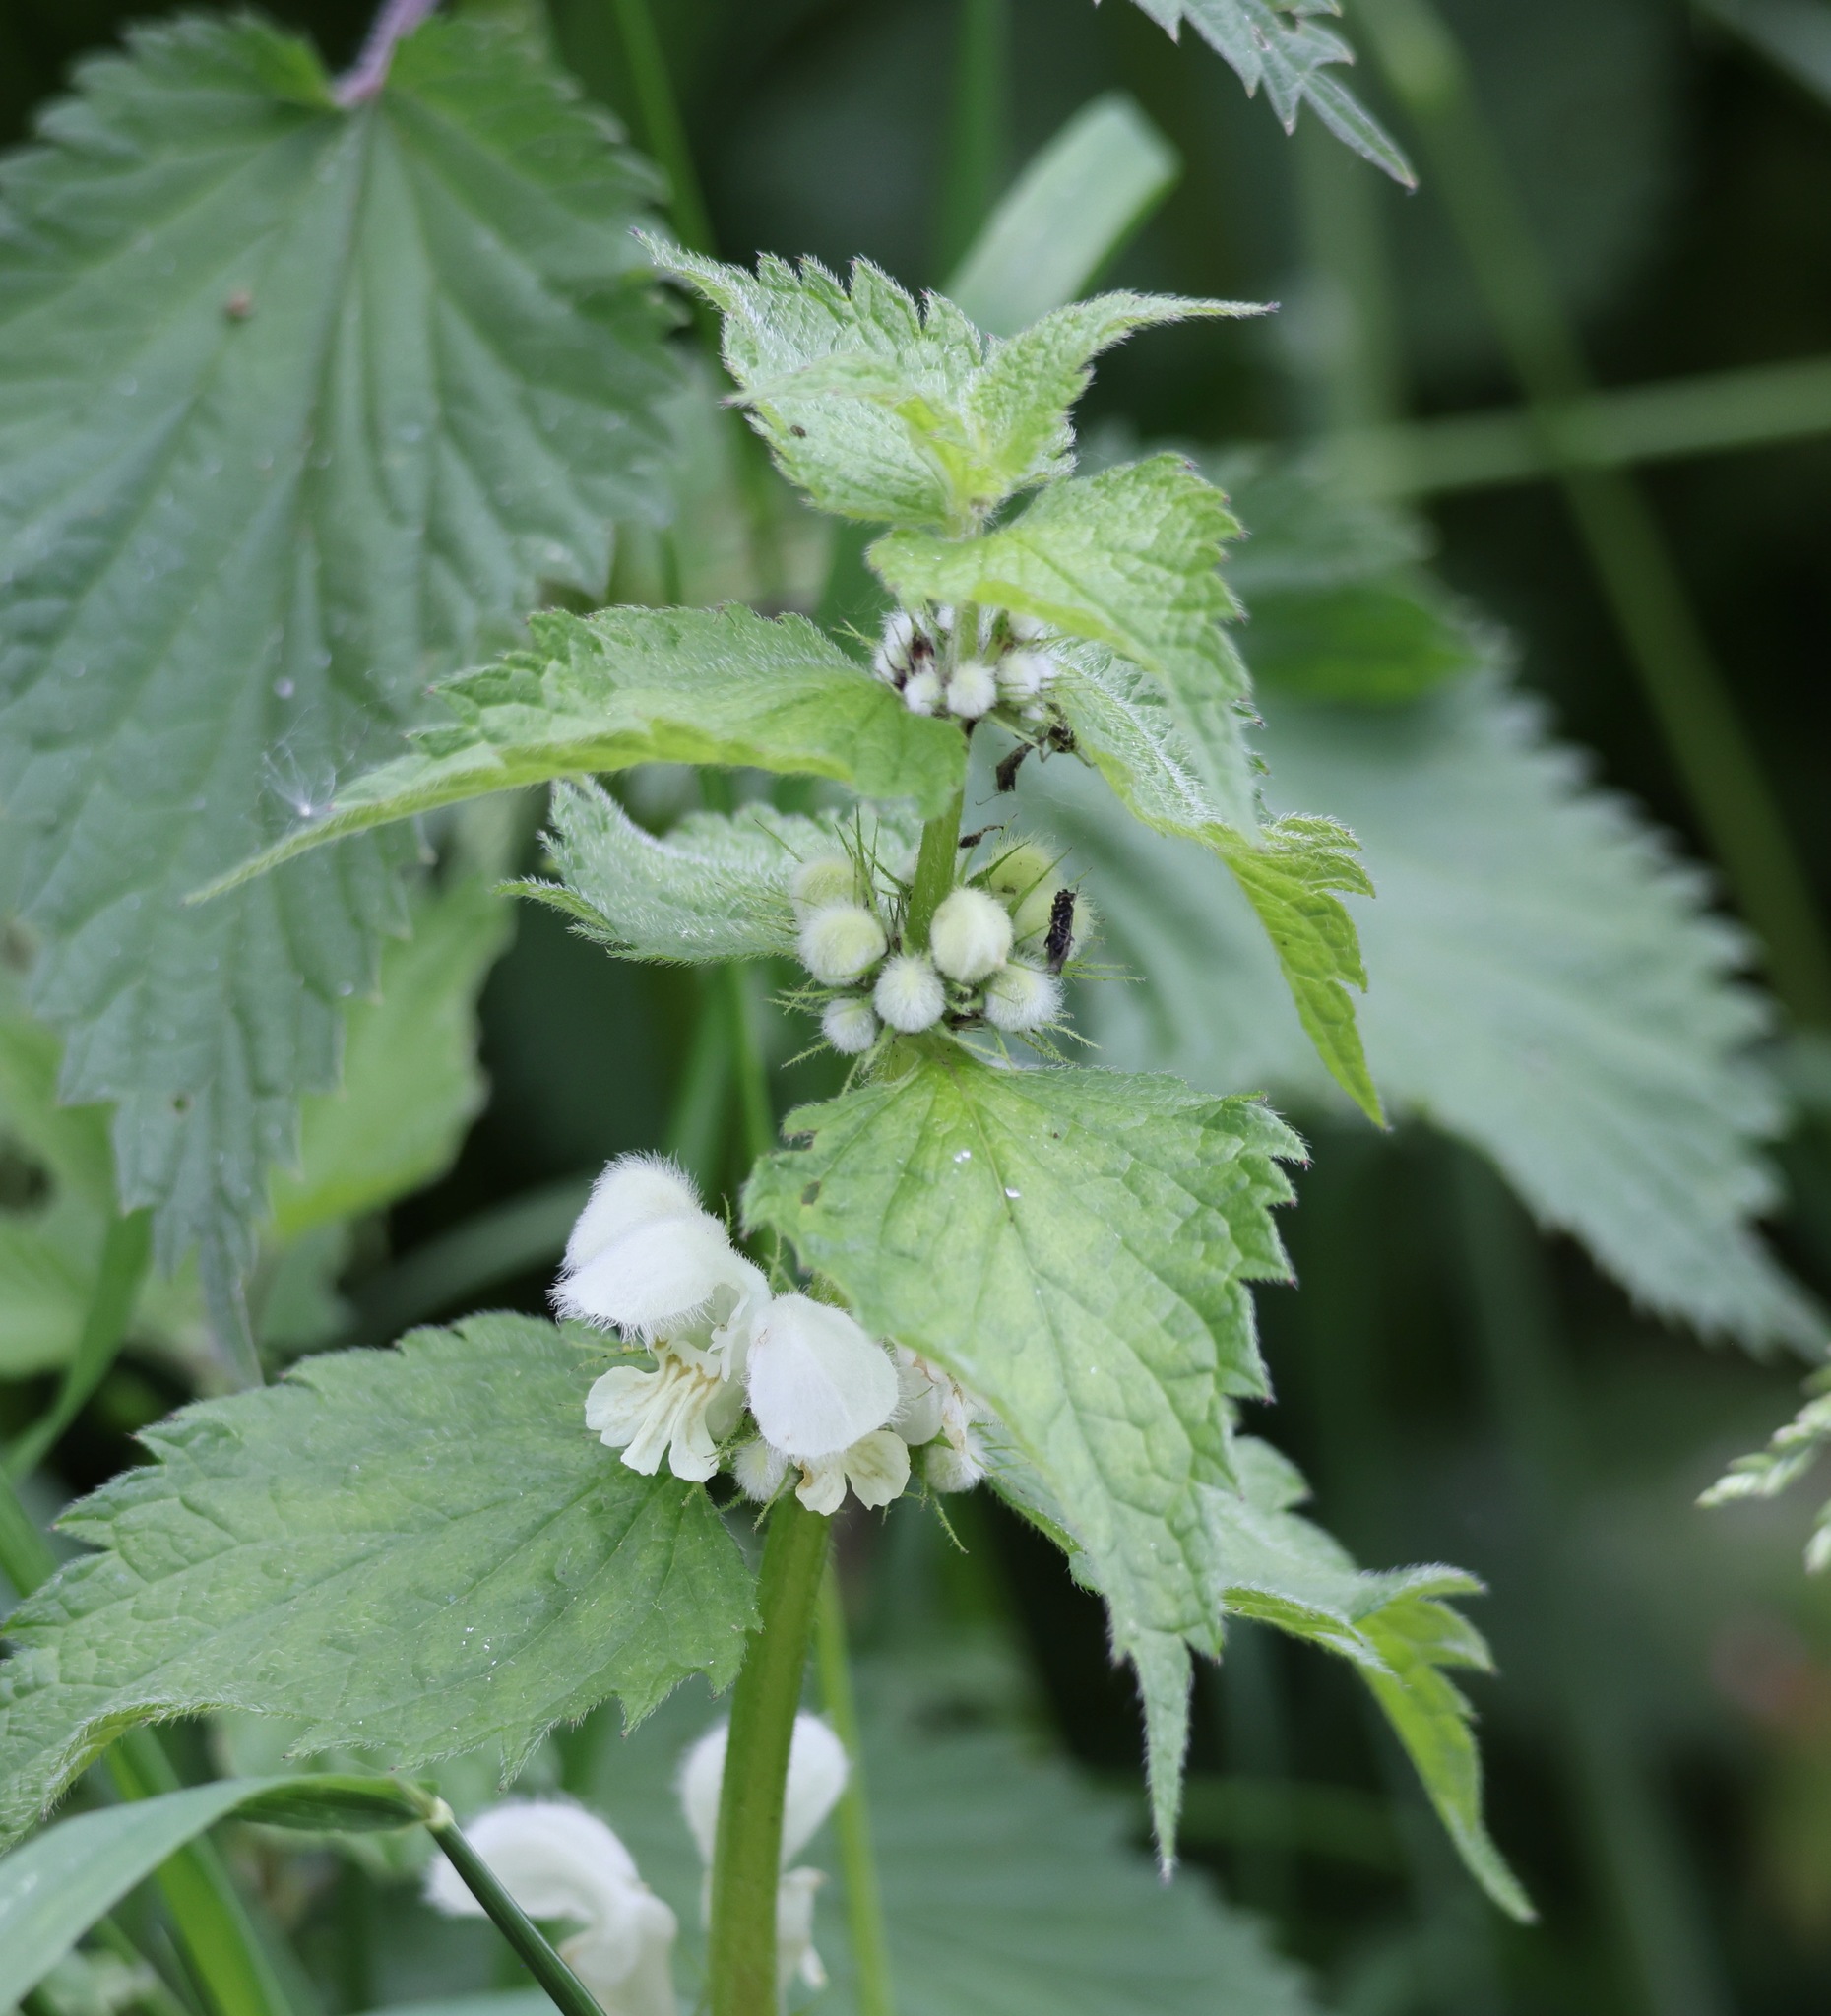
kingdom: Plantae
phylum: Tracheophyta
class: Magnoliopsida
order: Lamiales
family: Lamiaceae
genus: Lamium
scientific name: Lamium album
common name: White dead-nettle
